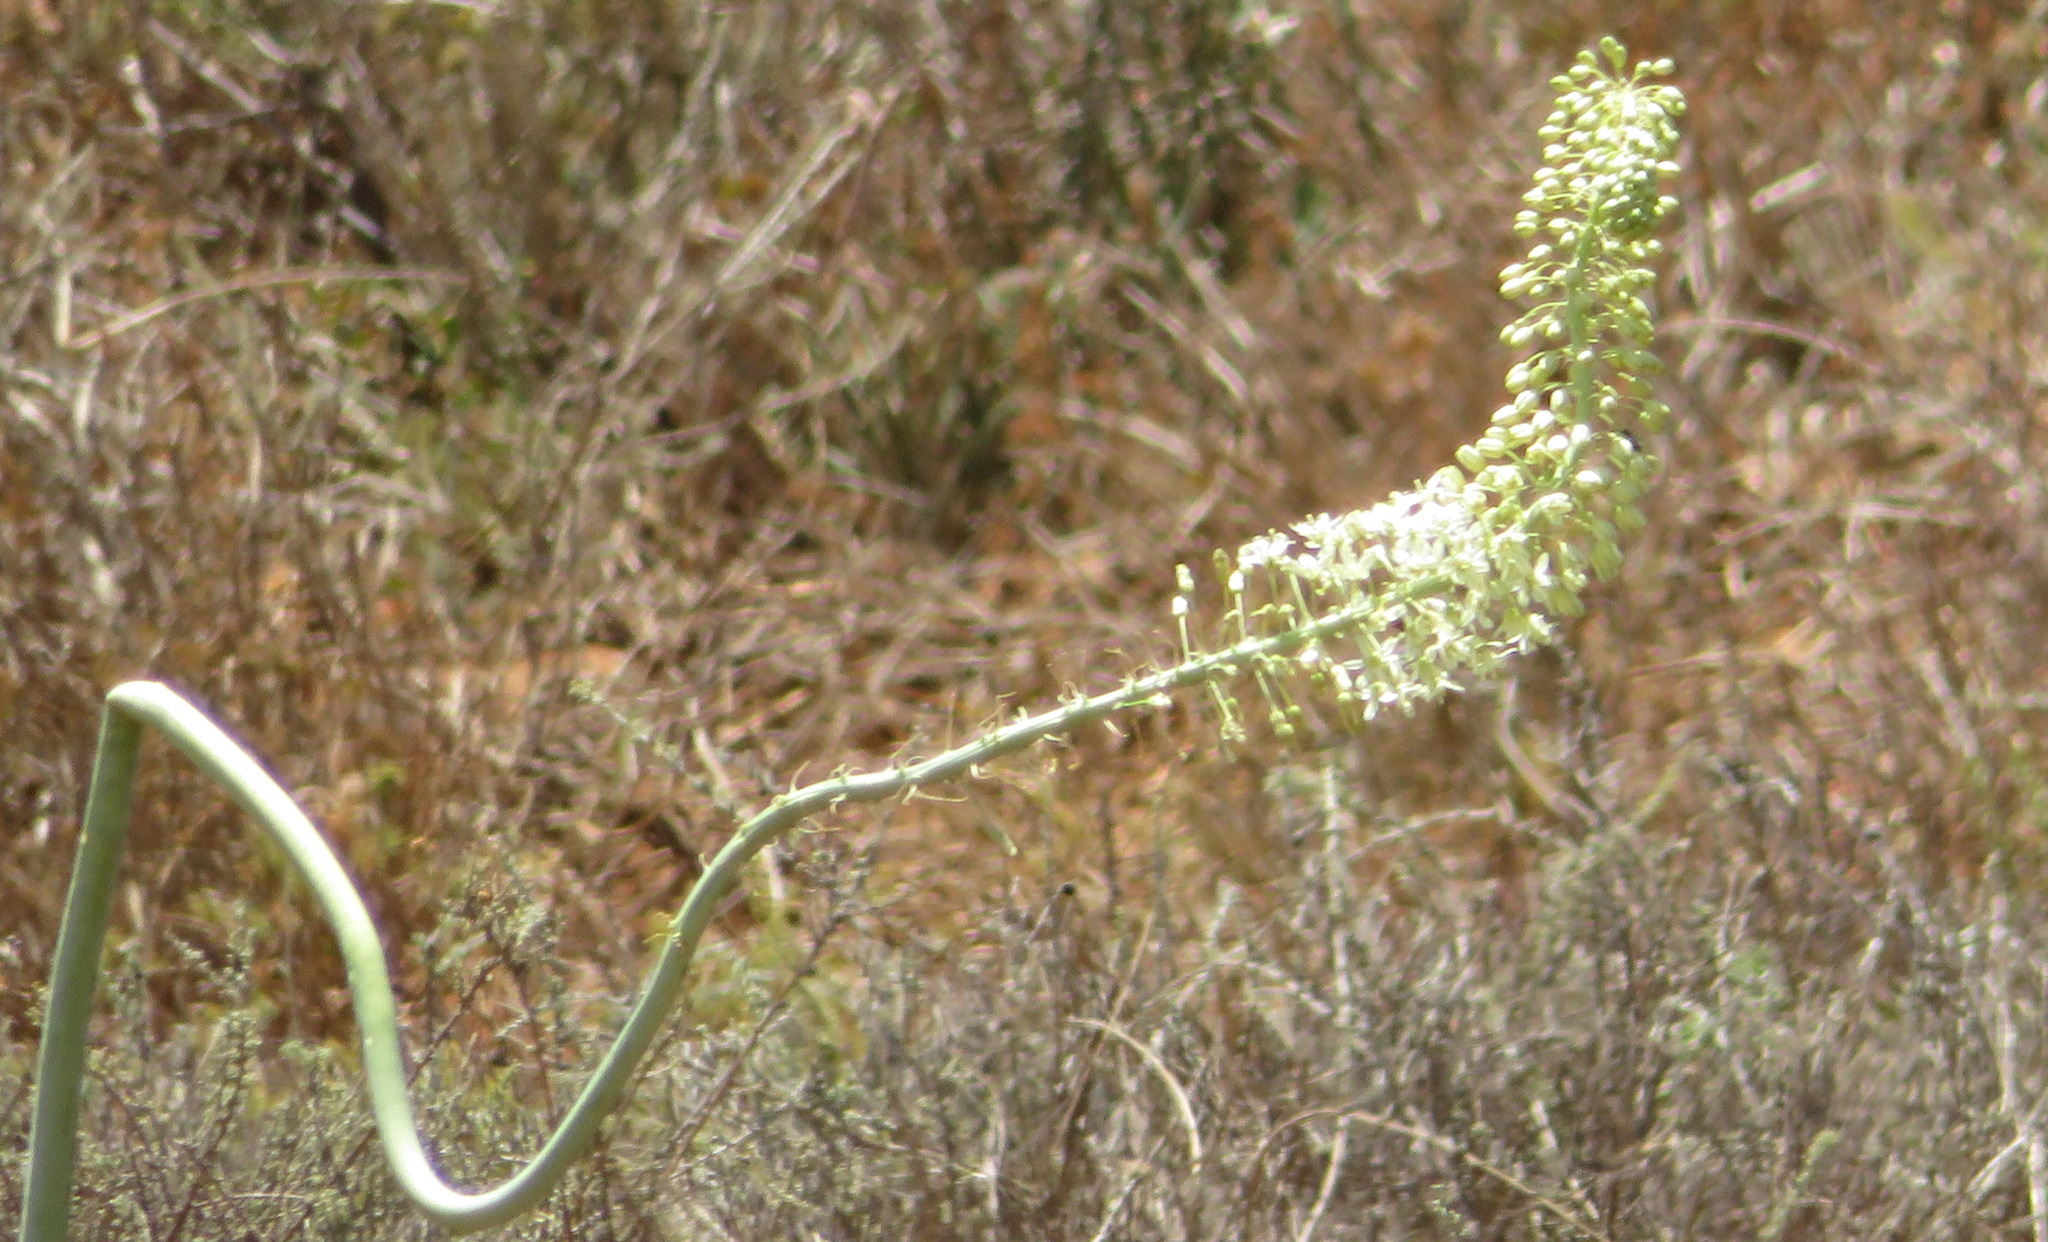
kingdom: Plantae
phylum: Tracheophyta
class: Liliopsida
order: Asparagales
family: Asparagaceae
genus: Drimia
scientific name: Drimia altissima
